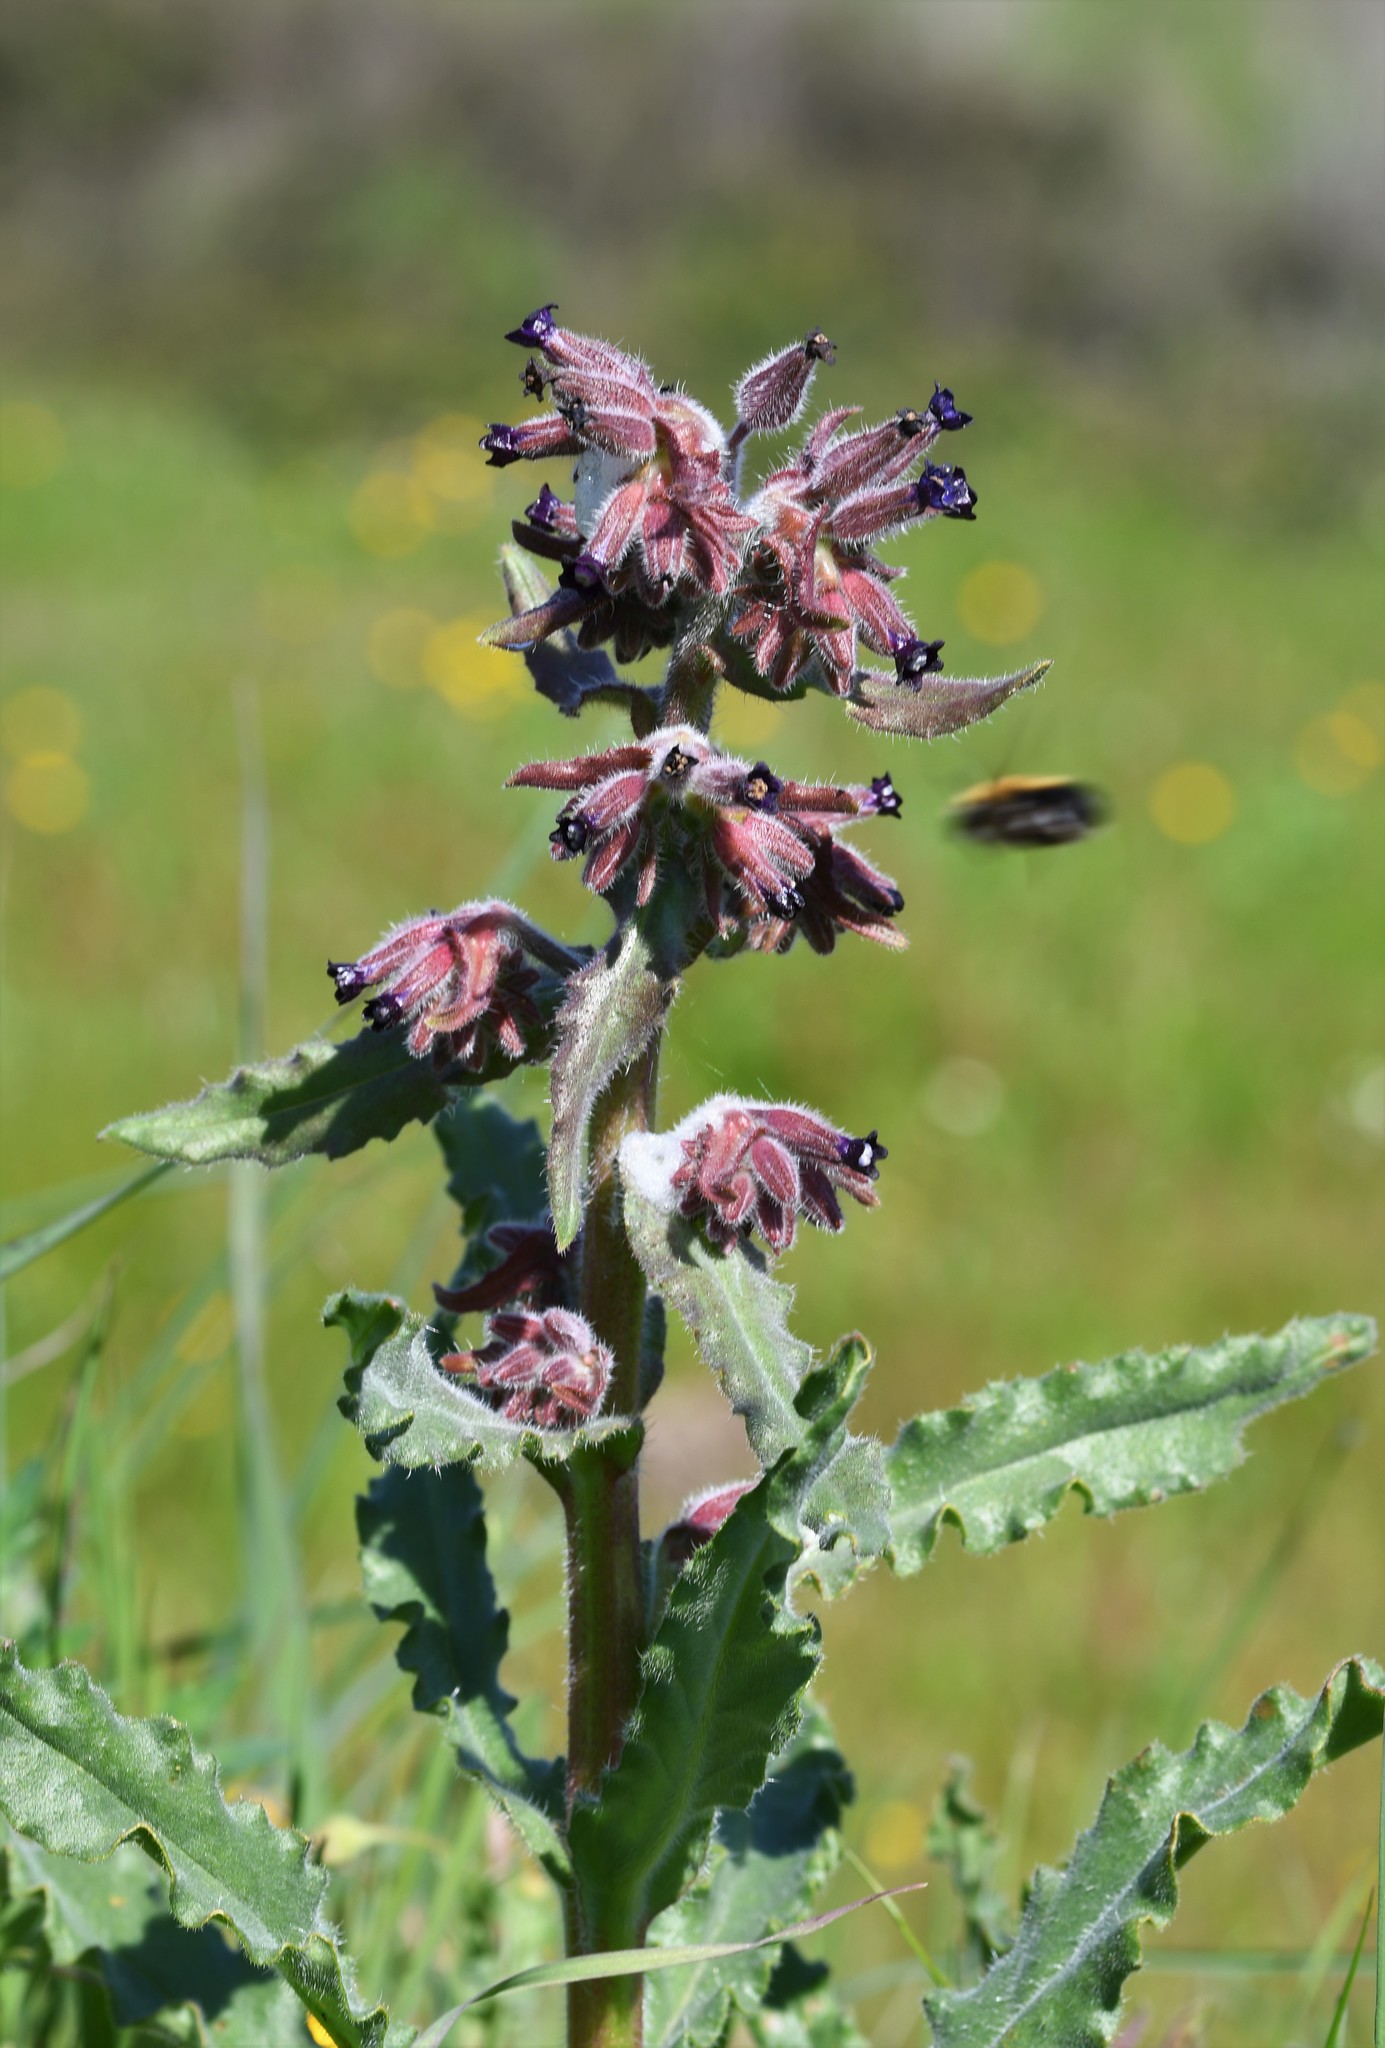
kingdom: Plantae
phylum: Tracheophyta
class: Magnoliopsida
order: Boraginales
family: Boraginaceae
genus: Anchusa
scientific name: Anchusa undulata
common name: Undulate alkanet
